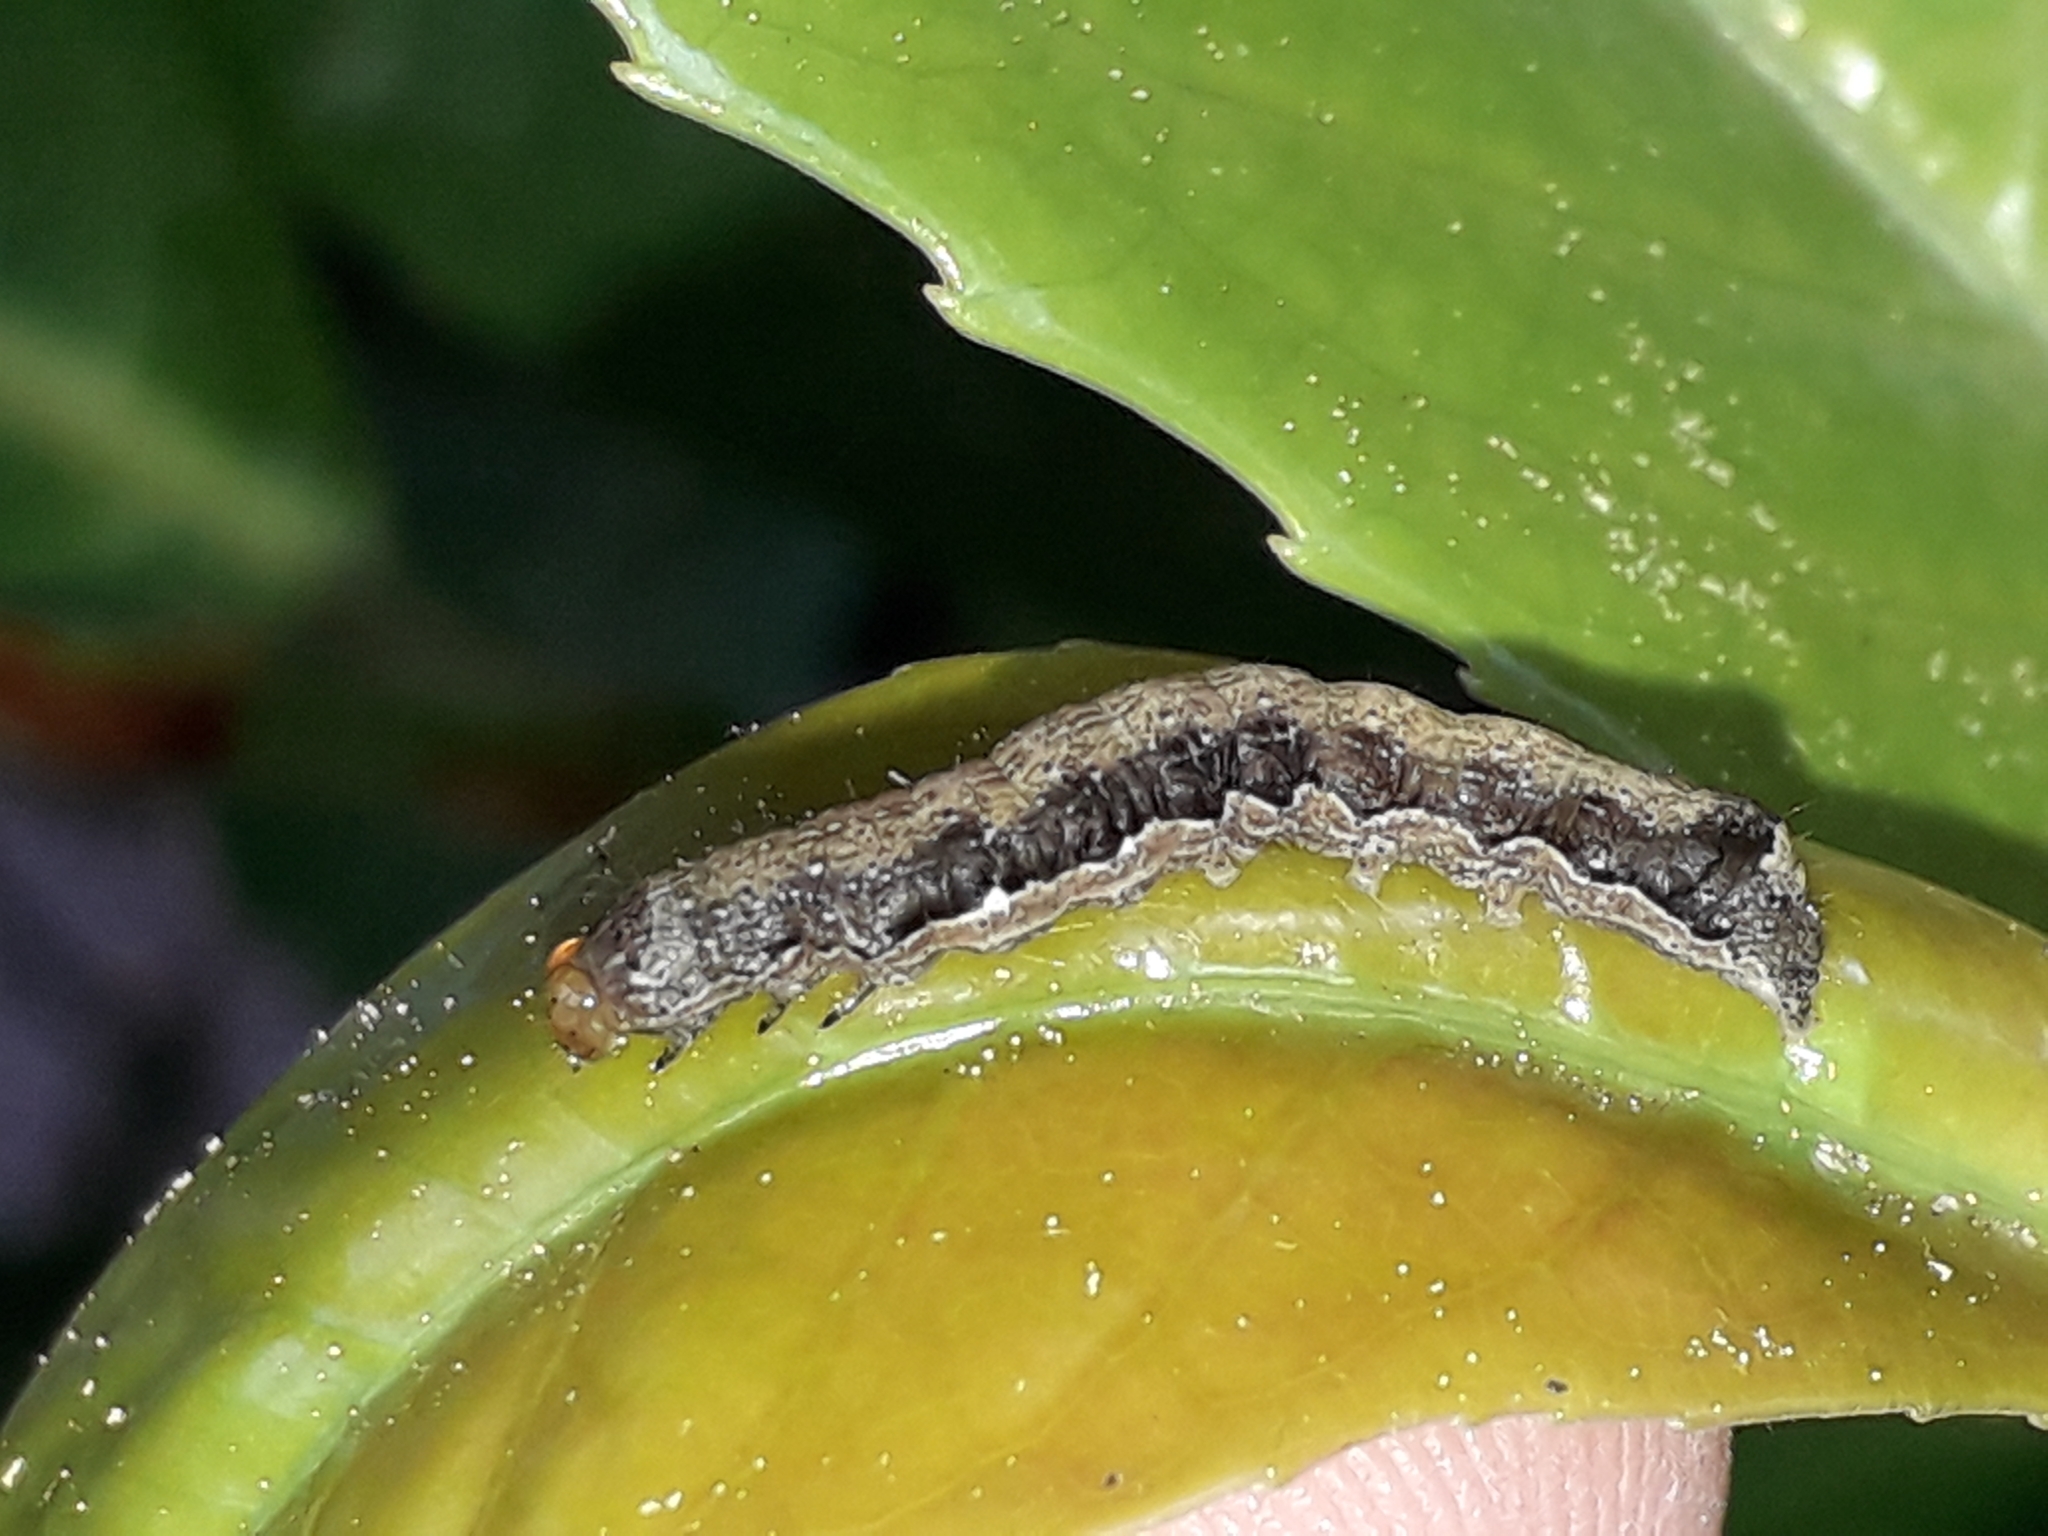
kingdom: Animalia
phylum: Arthropoda
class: Insecta
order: Lepidoptera
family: Noctuidae
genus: Anorthoa
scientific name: Anorthoa munda
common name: Twin-spotted quaker
